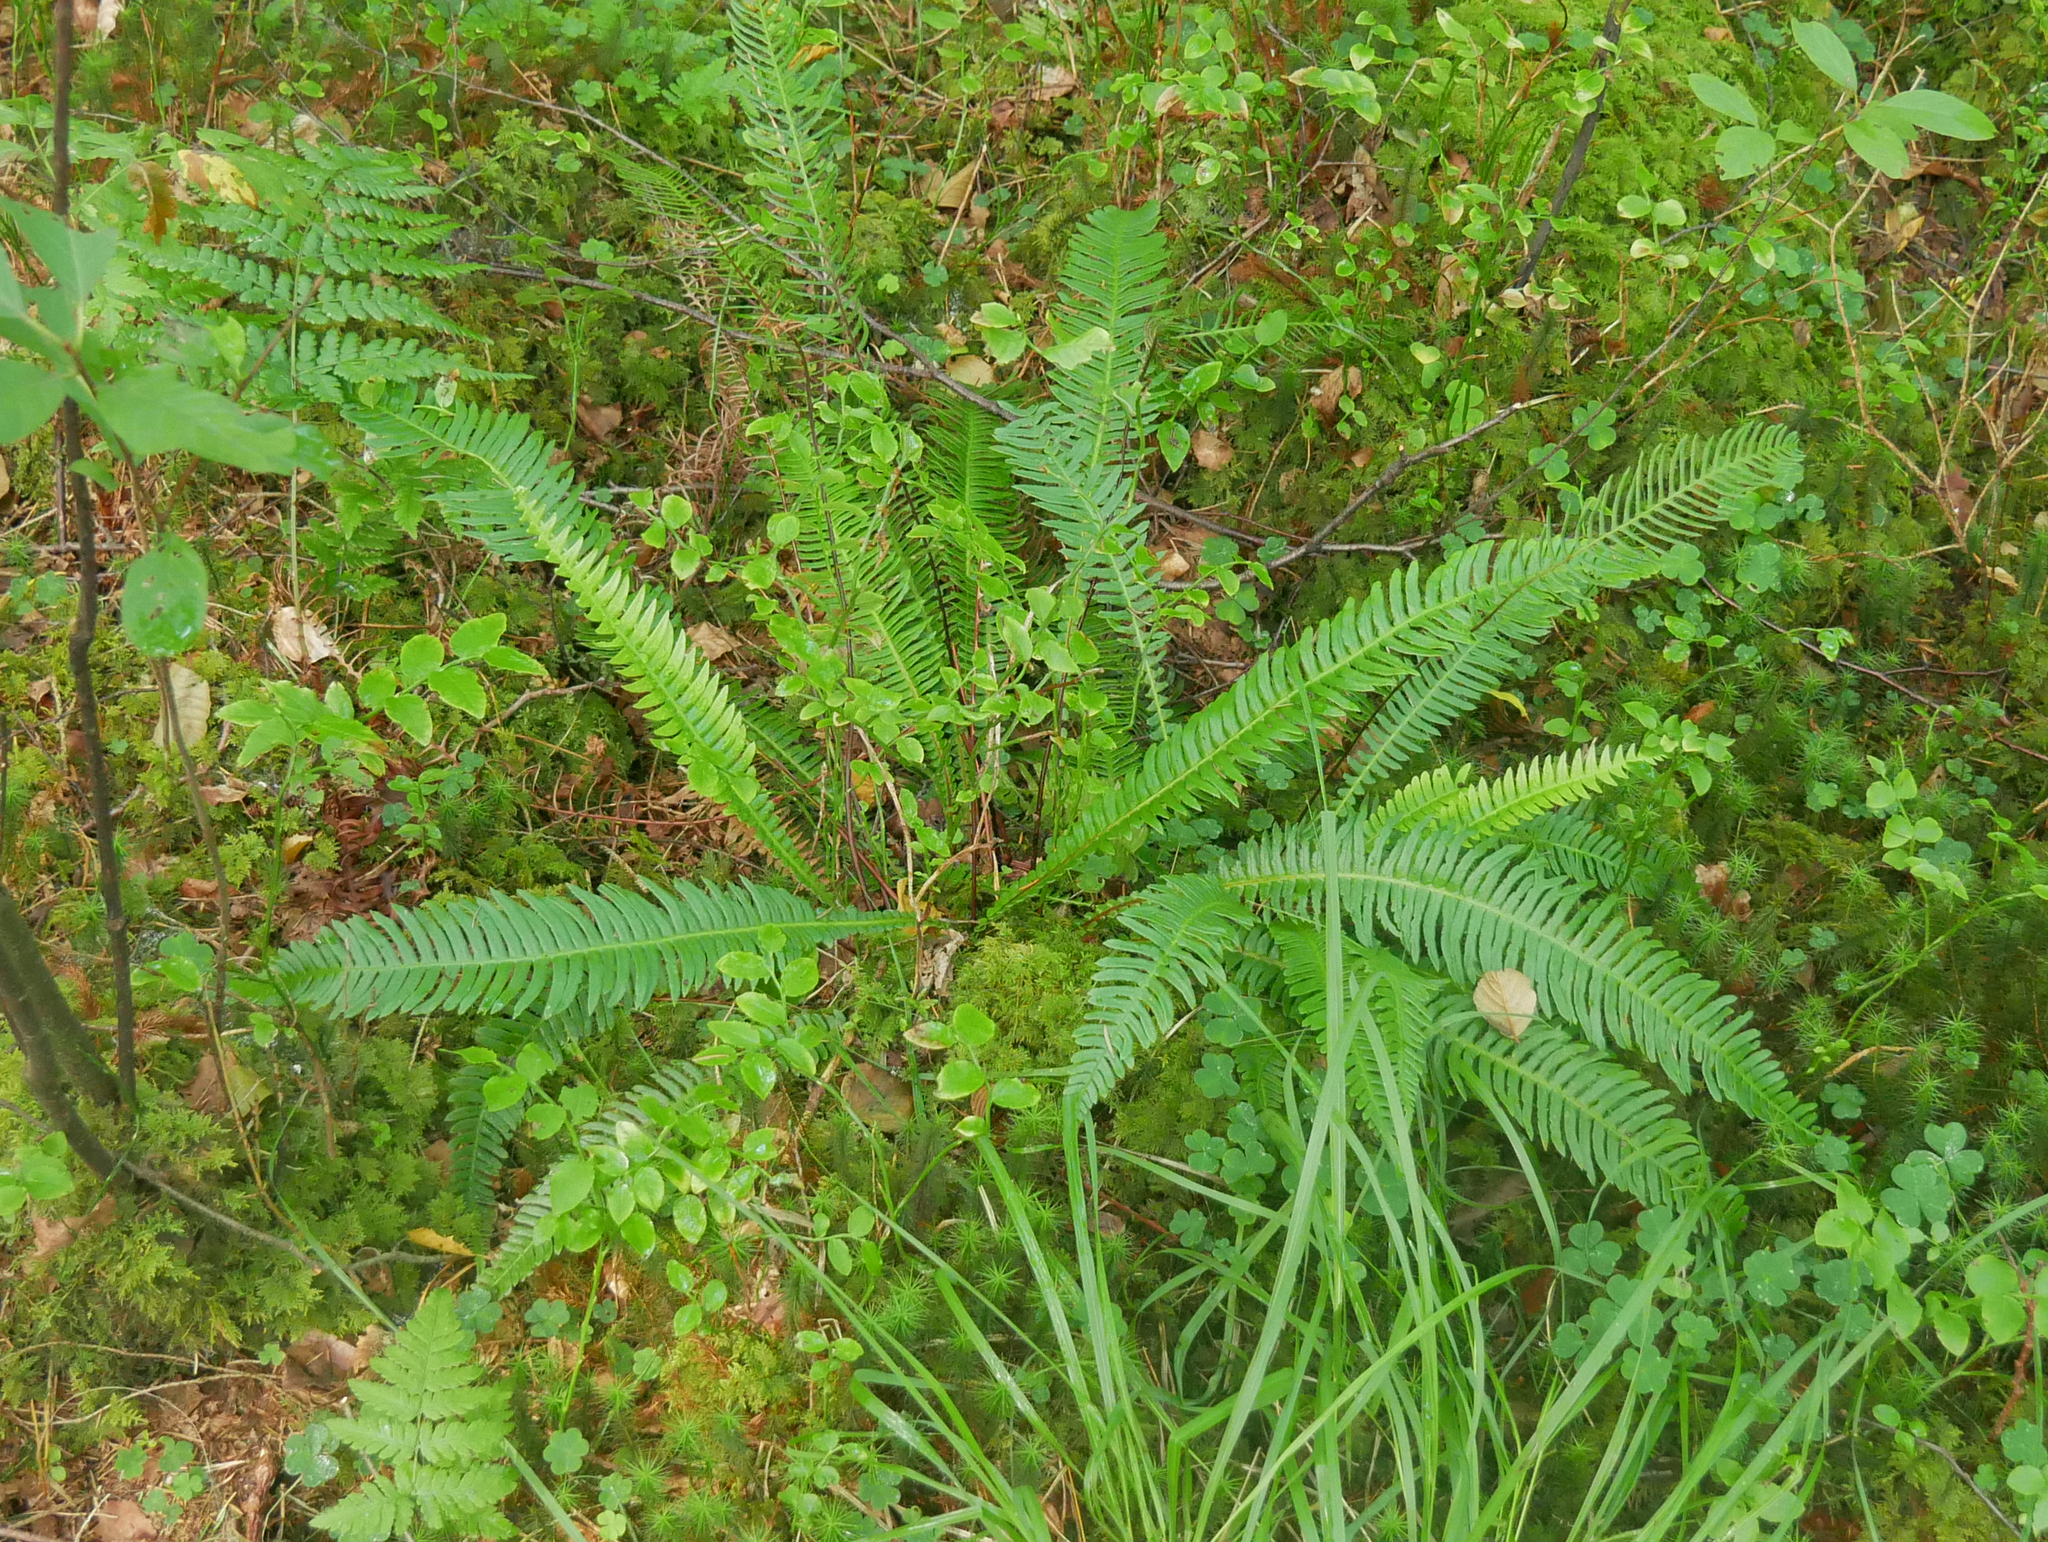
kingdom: Plantae
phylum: Tracheophyta
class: Polypodiopsida
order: Polypodiales
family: Blechnaceae
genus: Struthiopteris
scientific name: Struthiopteris spicant
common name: Deer fern
